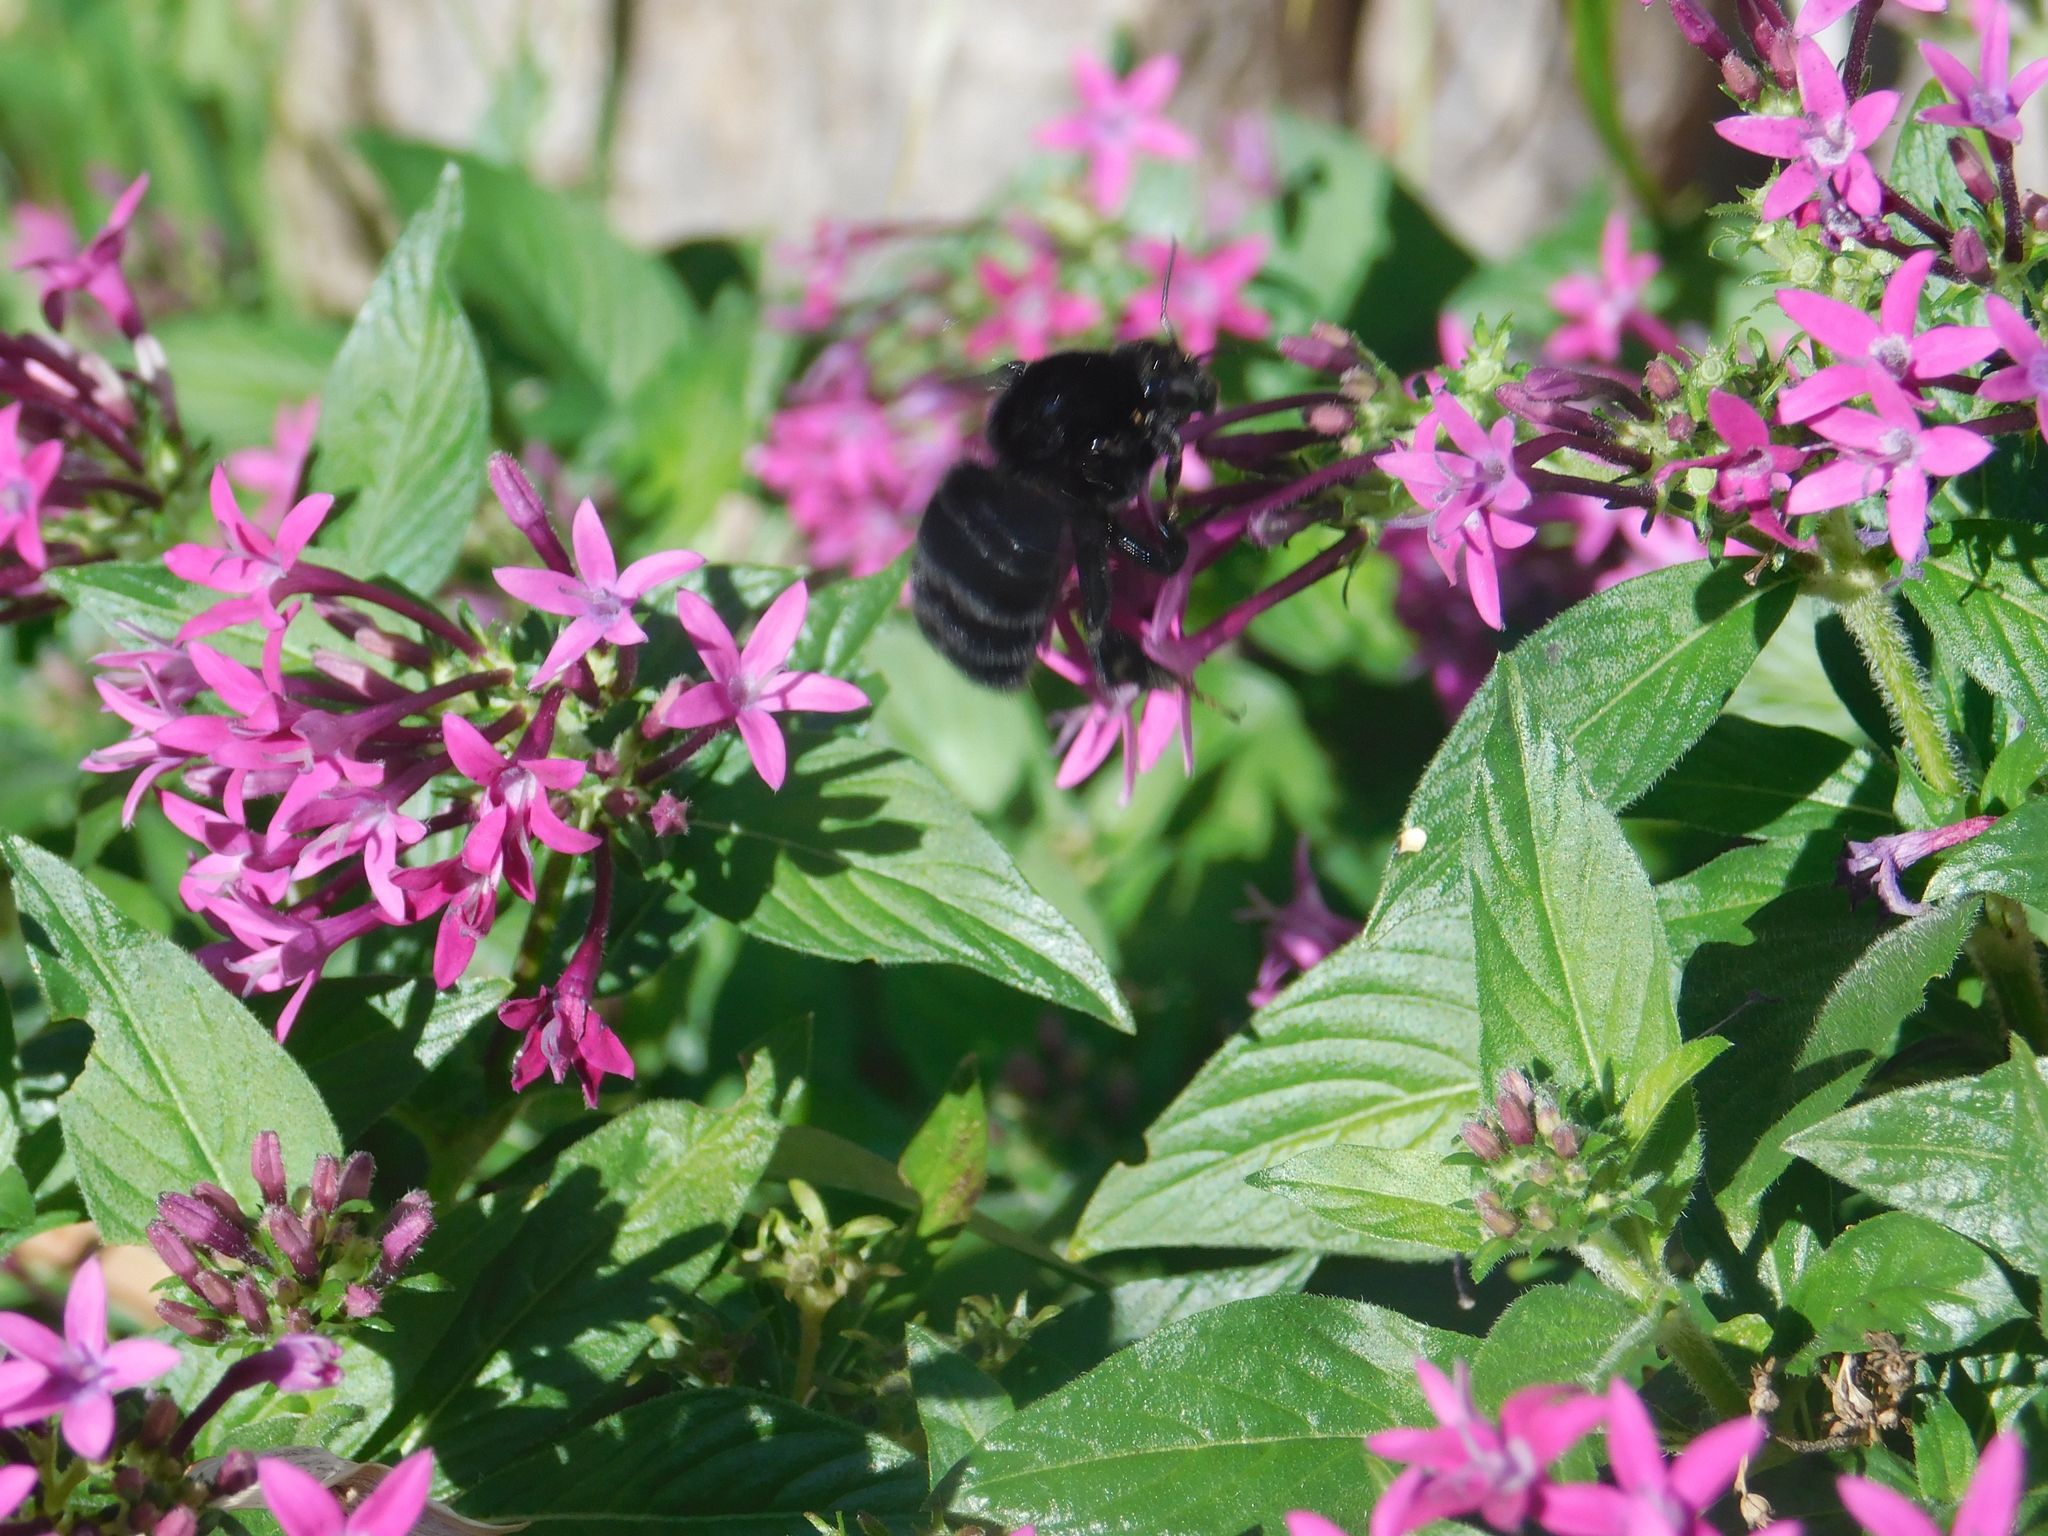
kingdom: Animalia
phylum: Arthropoda
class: Insecta
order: Hymenoptera
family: Apidae
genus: Bombus
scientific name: Bombus morio
